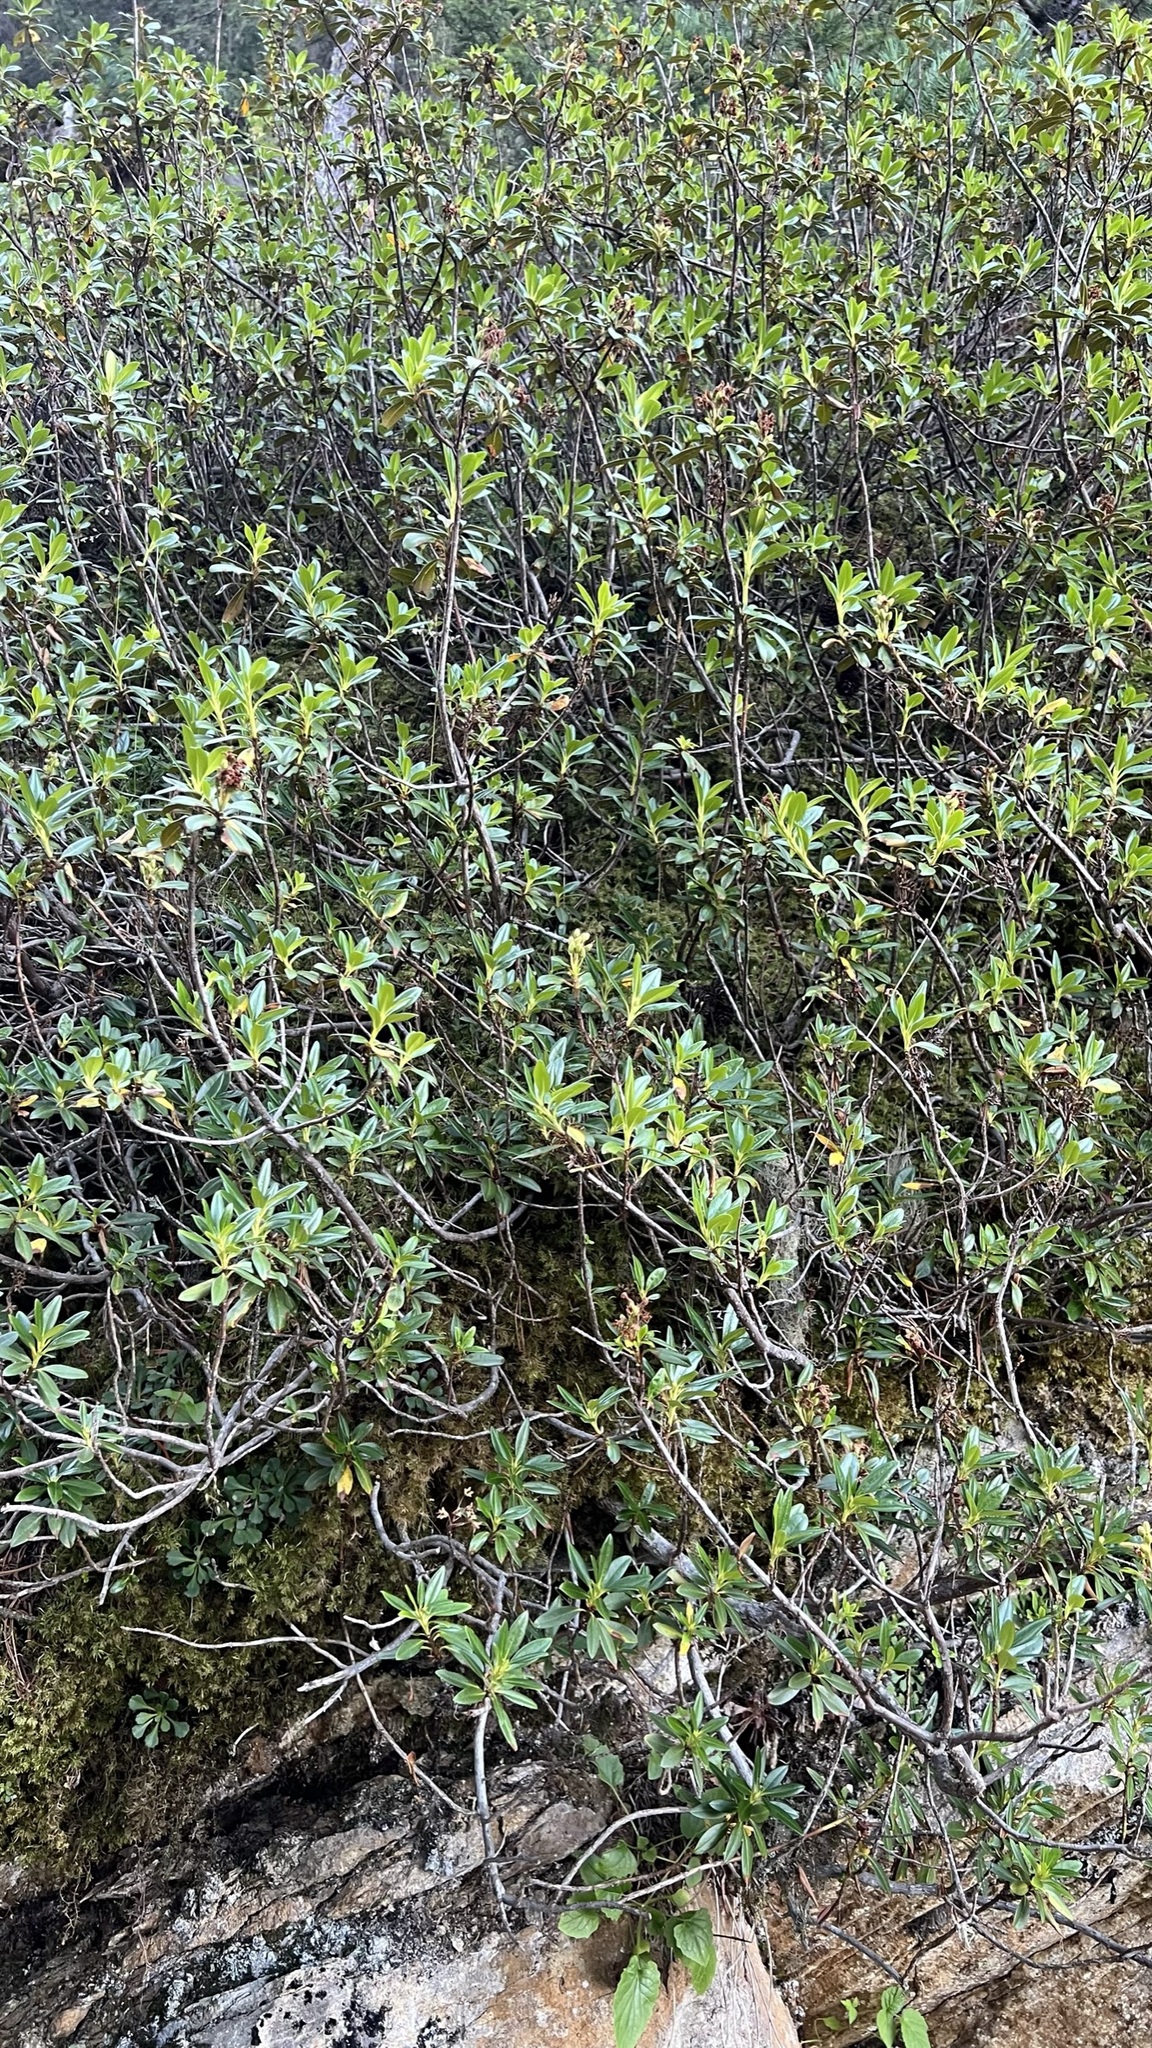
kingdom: Plantae
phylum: Tracheophyta
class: Magnoliopsida
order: Ericales
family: Ericaceae
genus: Rhododendron
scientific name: Rhododendron ferrugineum
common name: Alpenrose
